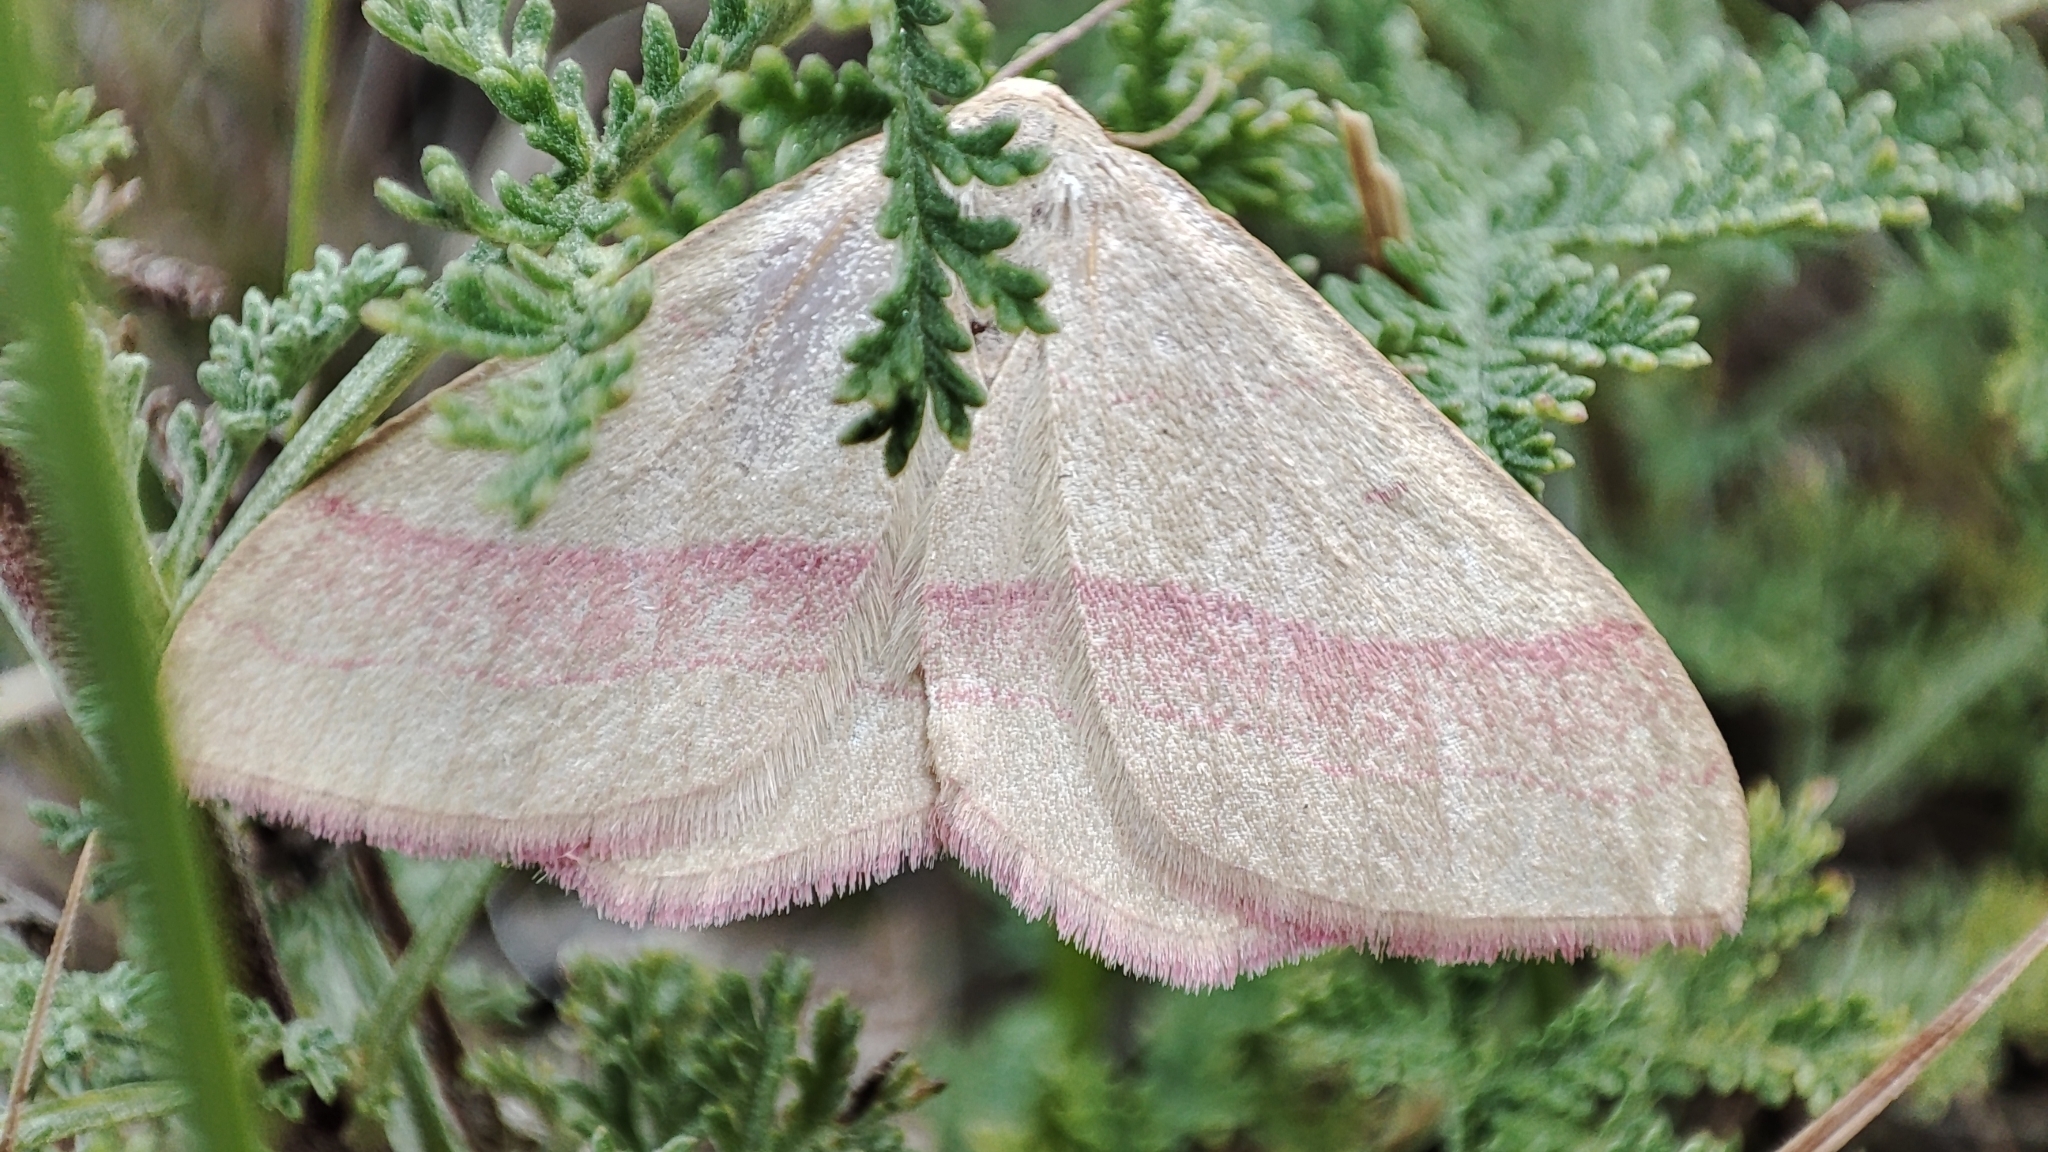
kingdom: Animalia
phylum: Arthropoda
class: Insecta
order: Lepidoptera
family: Geometridae
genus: Rhodostrophia
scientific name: Rhodostrophia vibicaria
